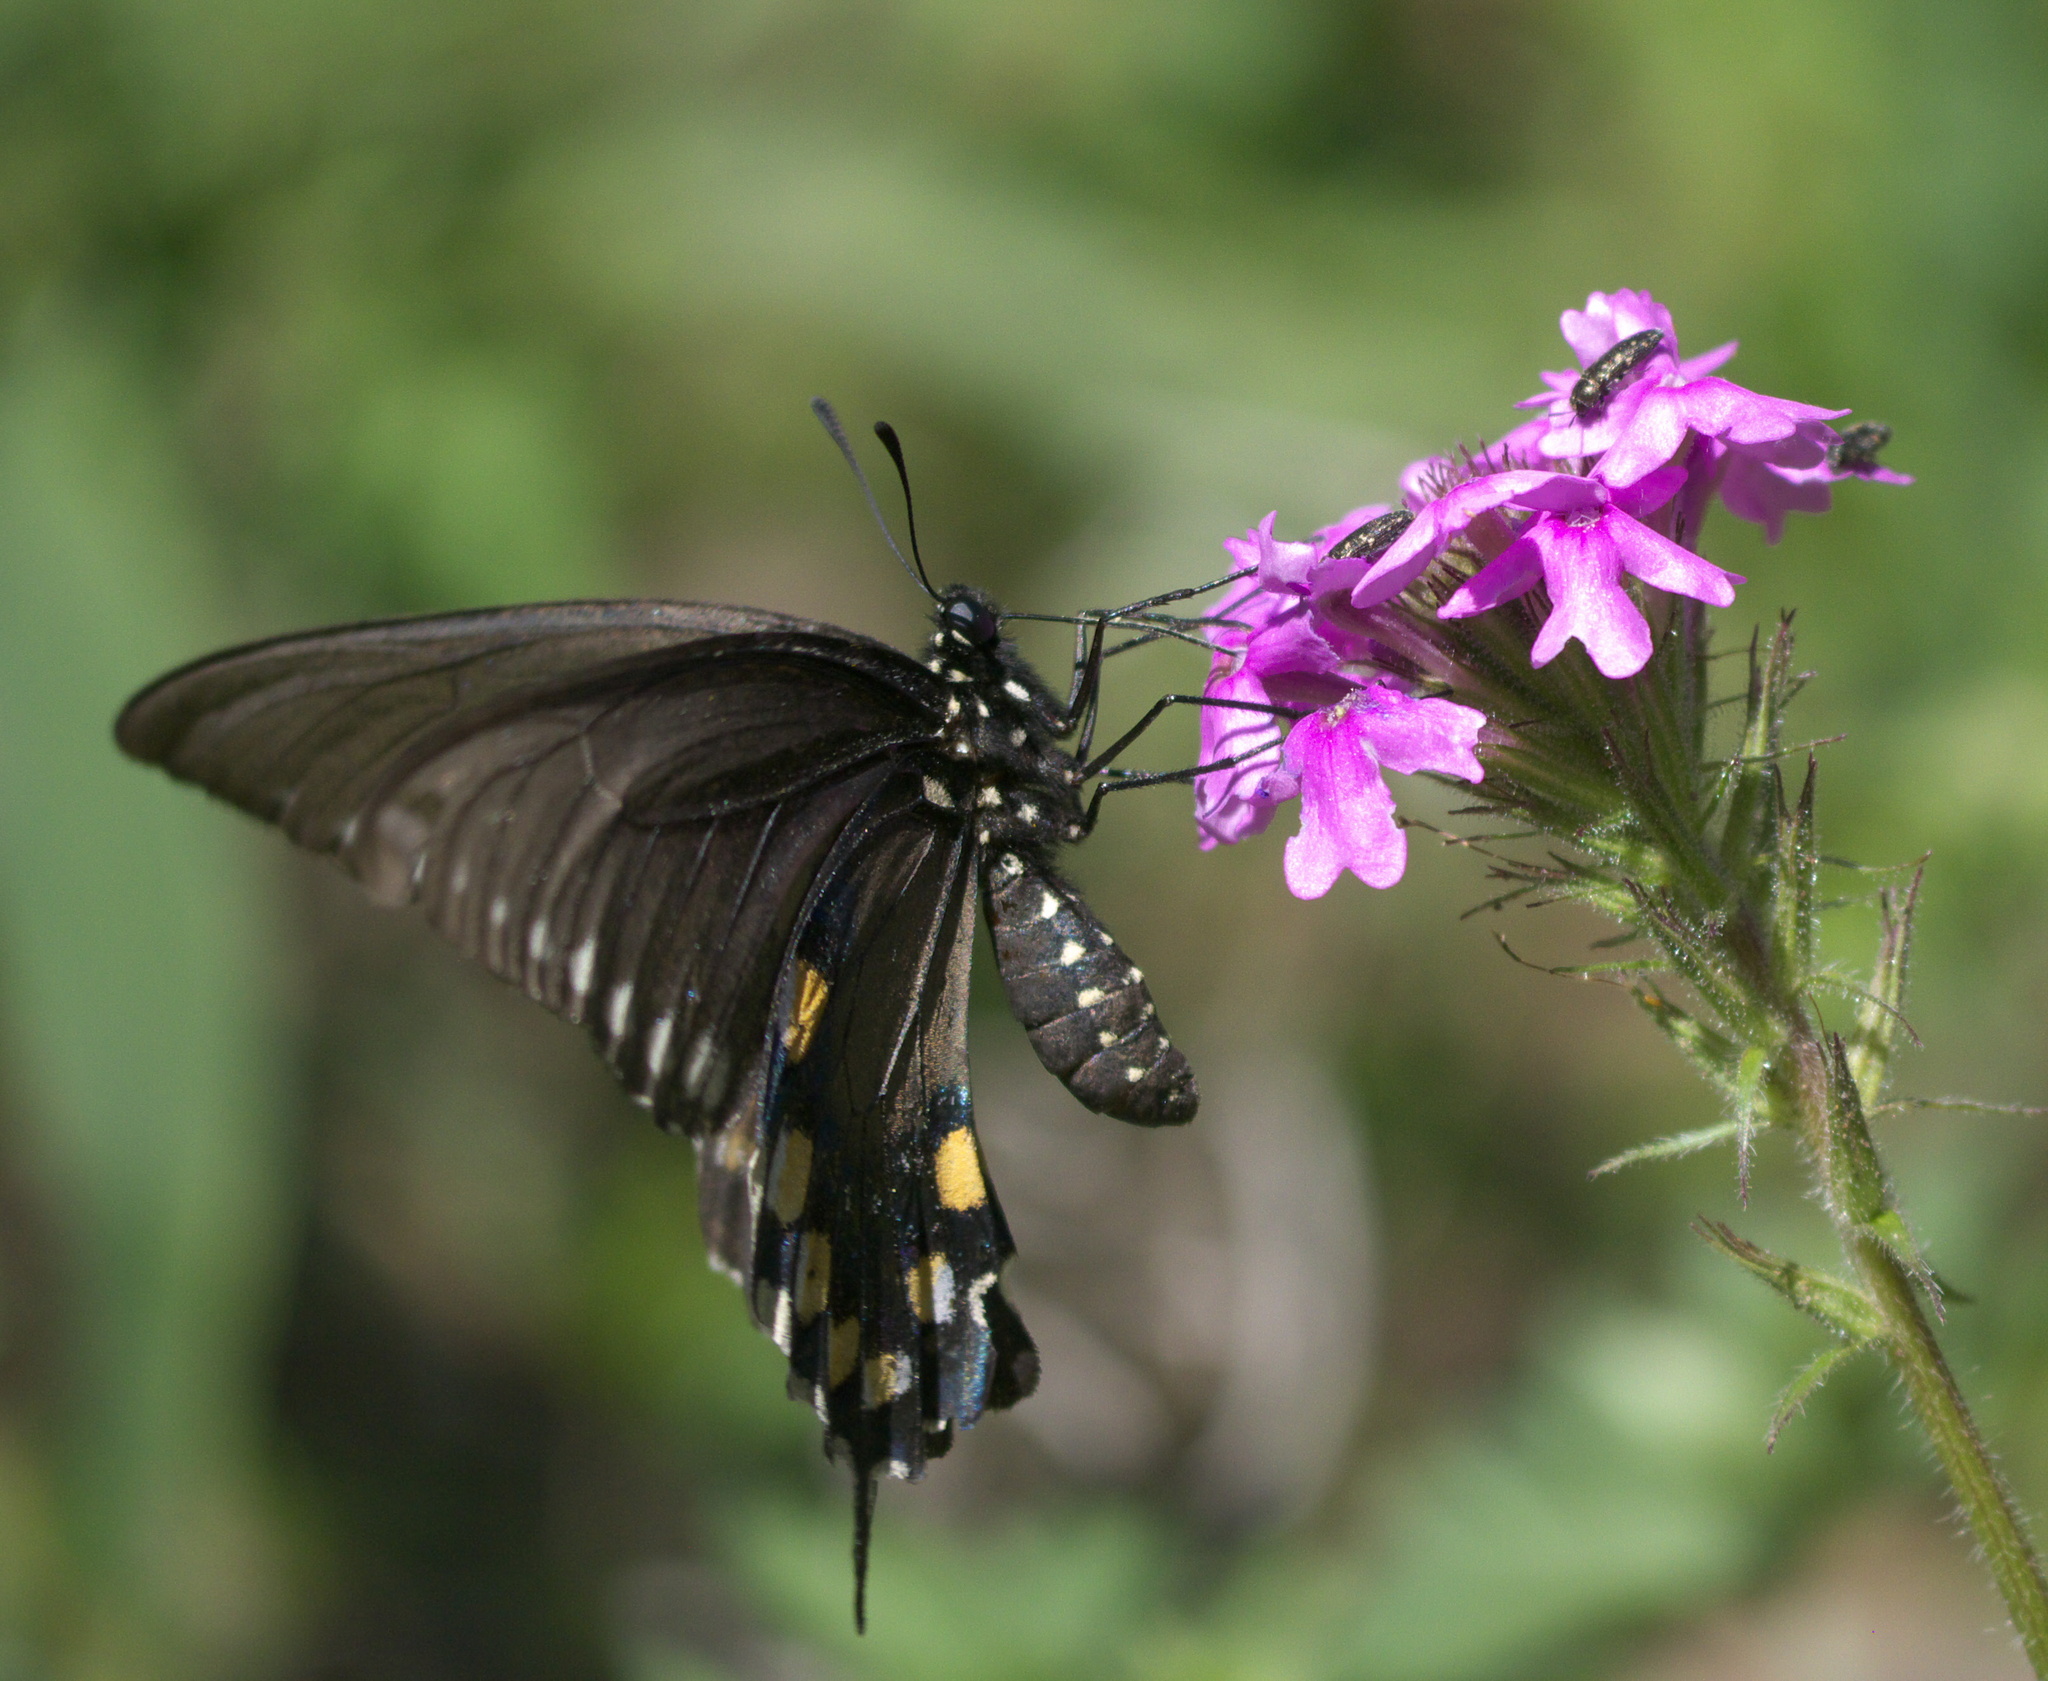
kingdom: Animalia
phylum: Arthropoda
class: Insecta
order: Lepidoptera
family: Papilionidae
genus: Battus
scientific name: Battus philenor
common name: Pipevine swallowtail
